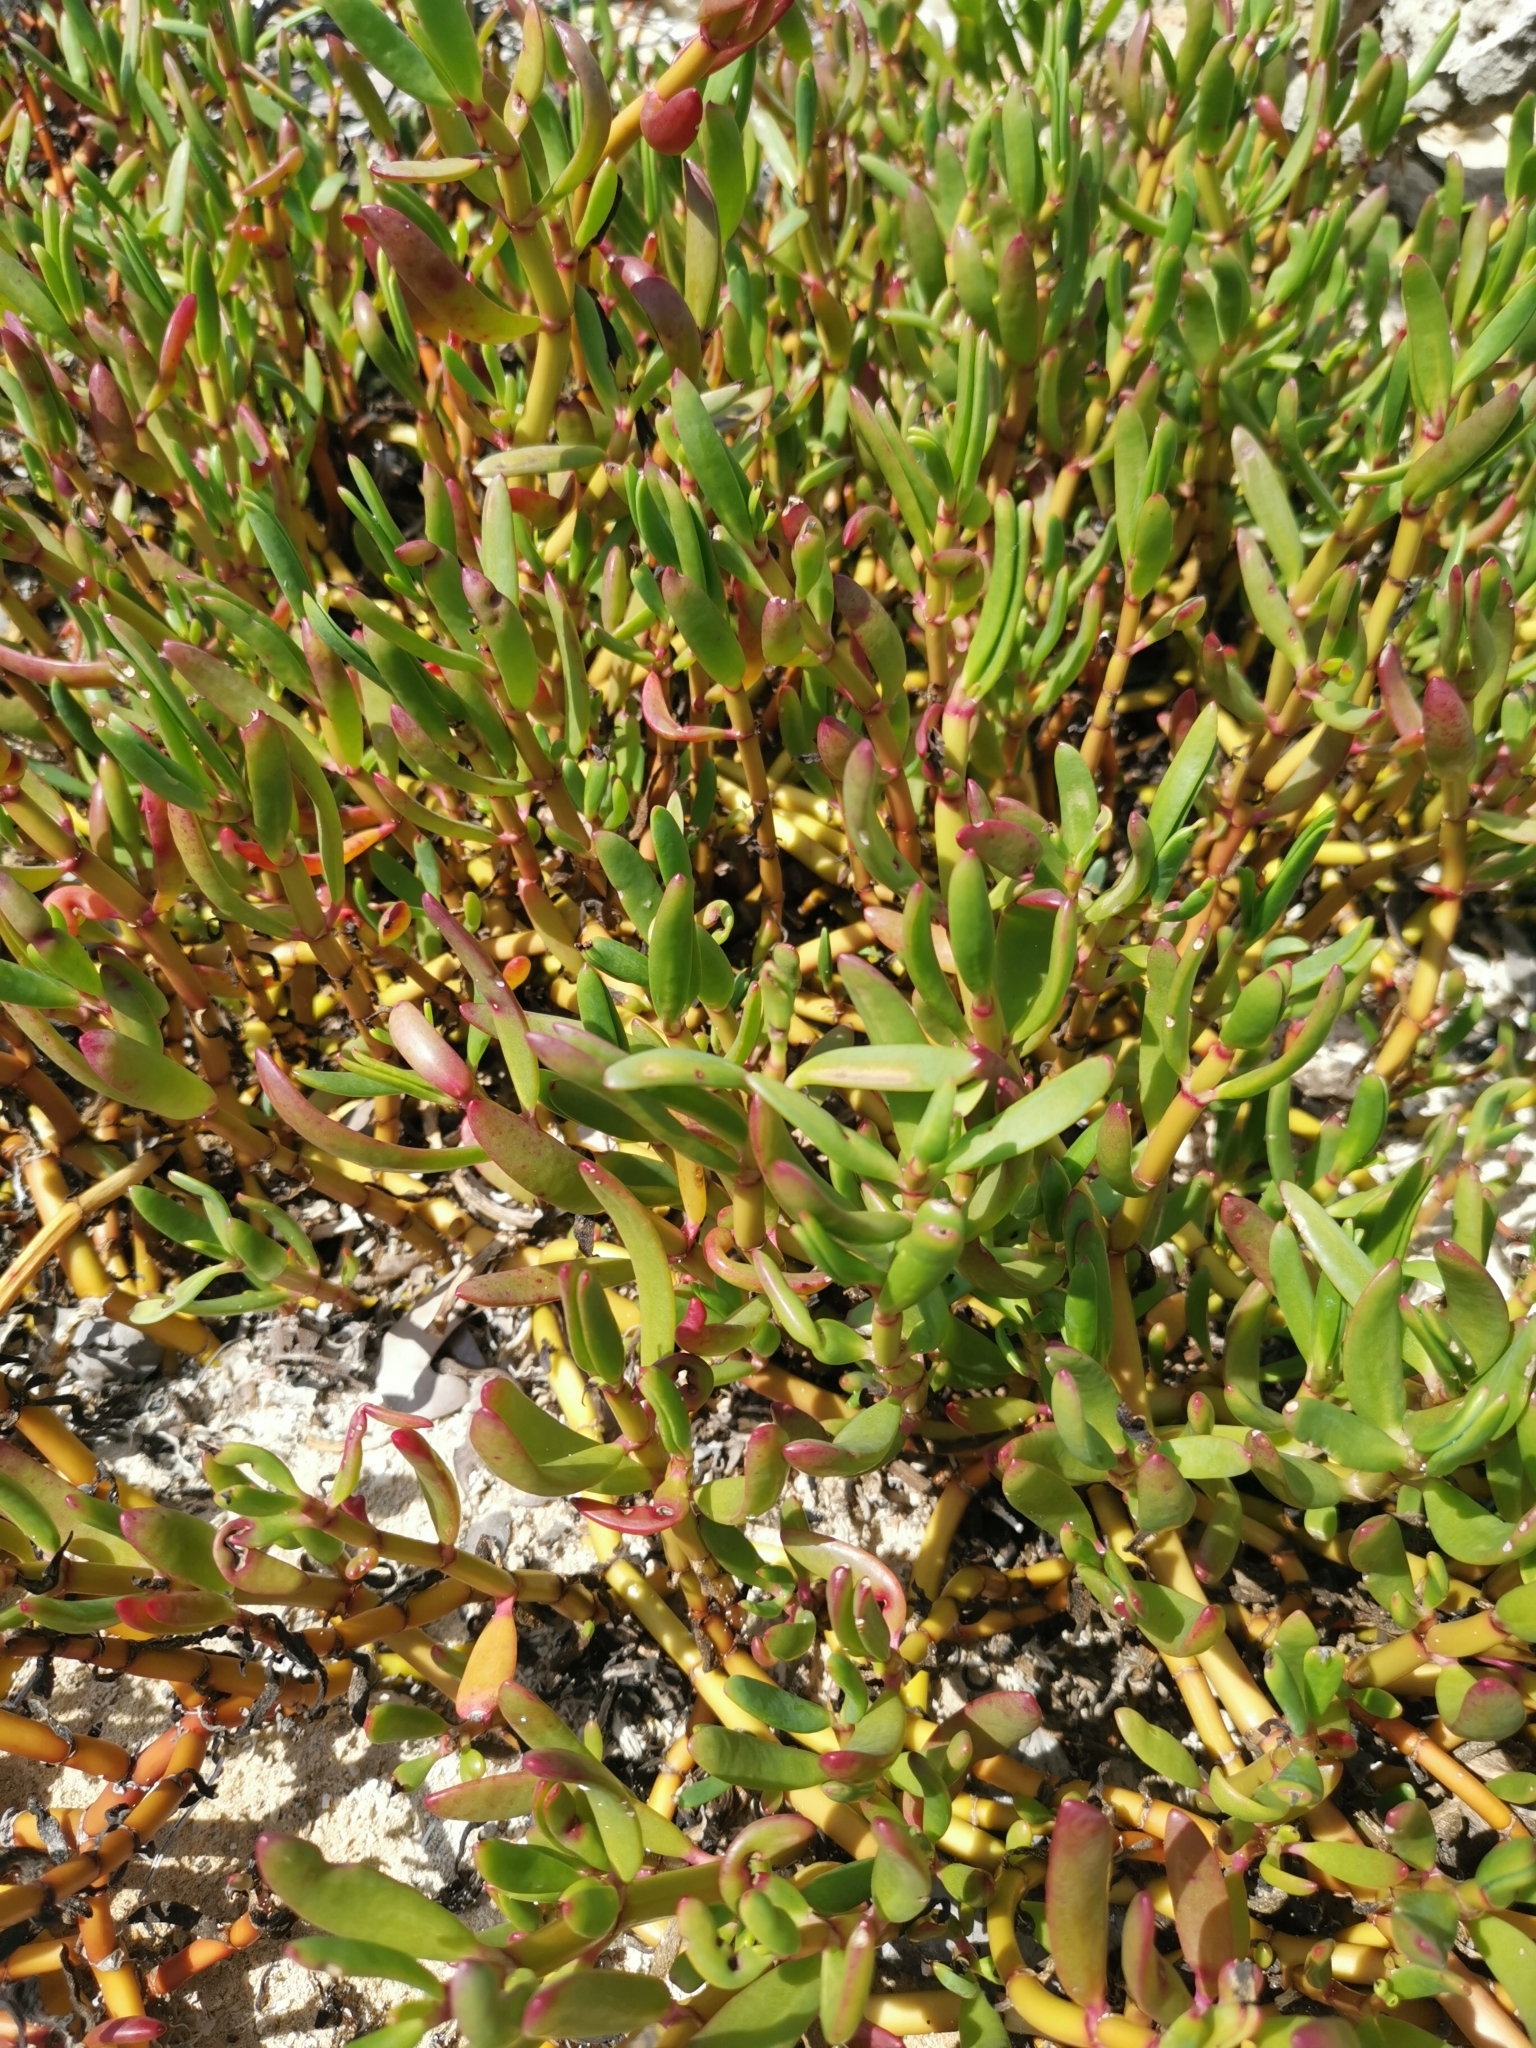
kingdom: Plantae
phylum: Tracheophyta
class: Magnoliopsida
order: Caryophyllales
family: Aizoaceae
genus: Sesuvium
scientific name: Sesuvium portulacastrum
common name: Sea-purslane
